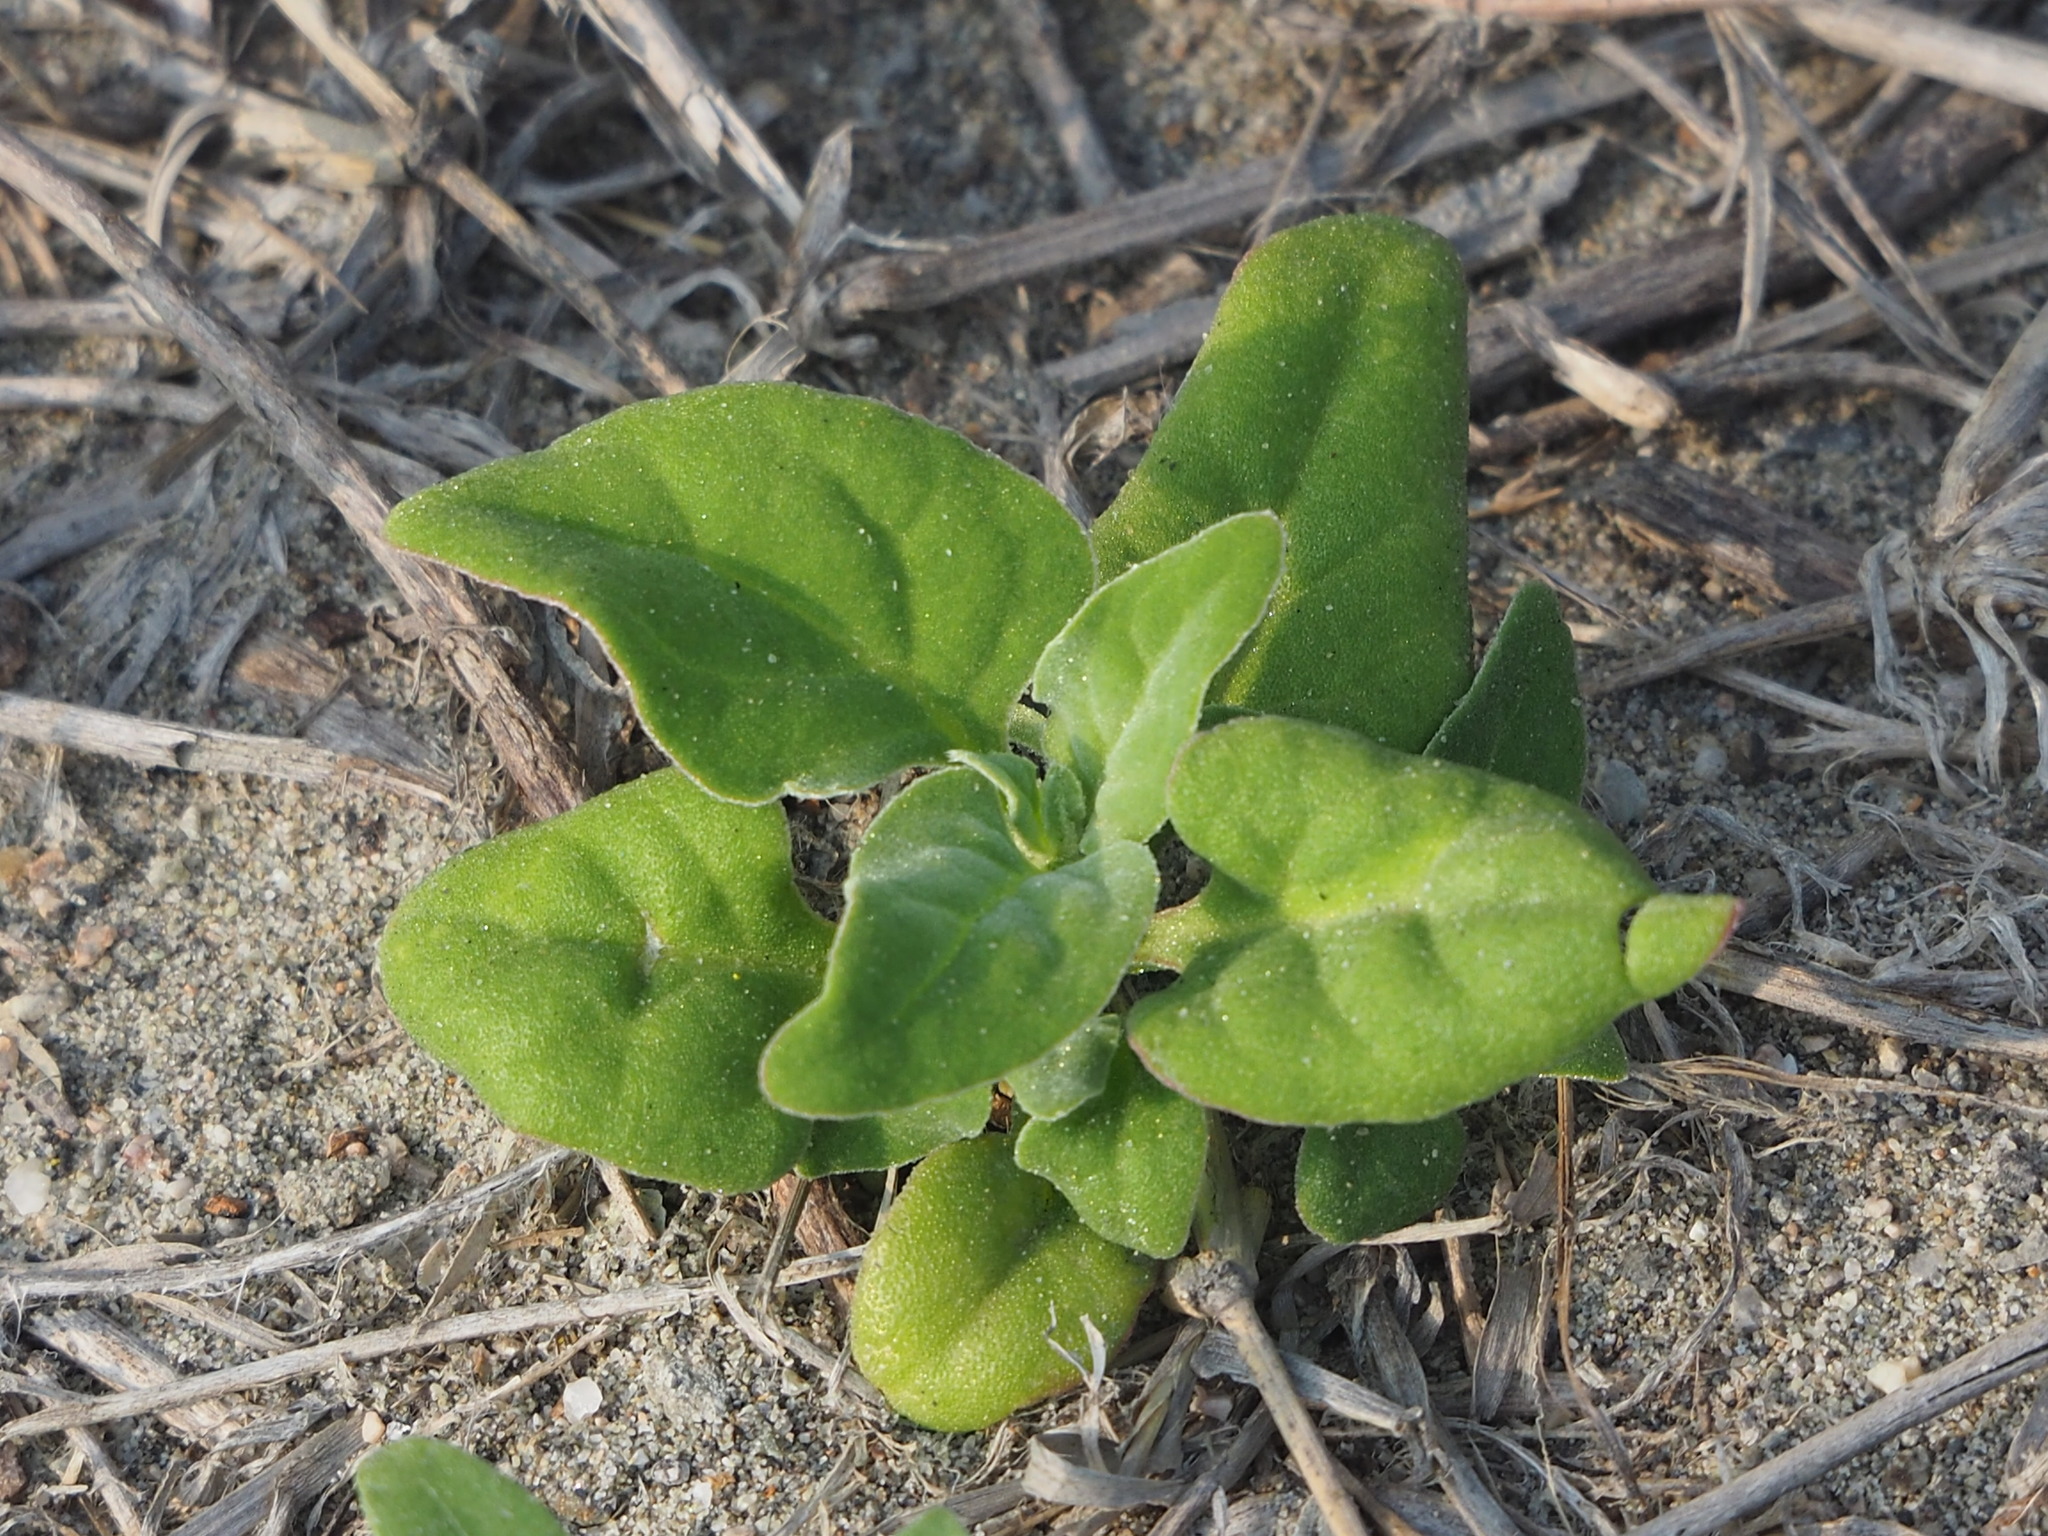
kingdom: Plantae
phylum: Tracheophyta
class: Magnoliopsida
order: Caryophyllales
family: Aizoaceae
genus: Tetragonia
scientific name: Tetragonia tetragonoides
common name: New zealand-spinach
